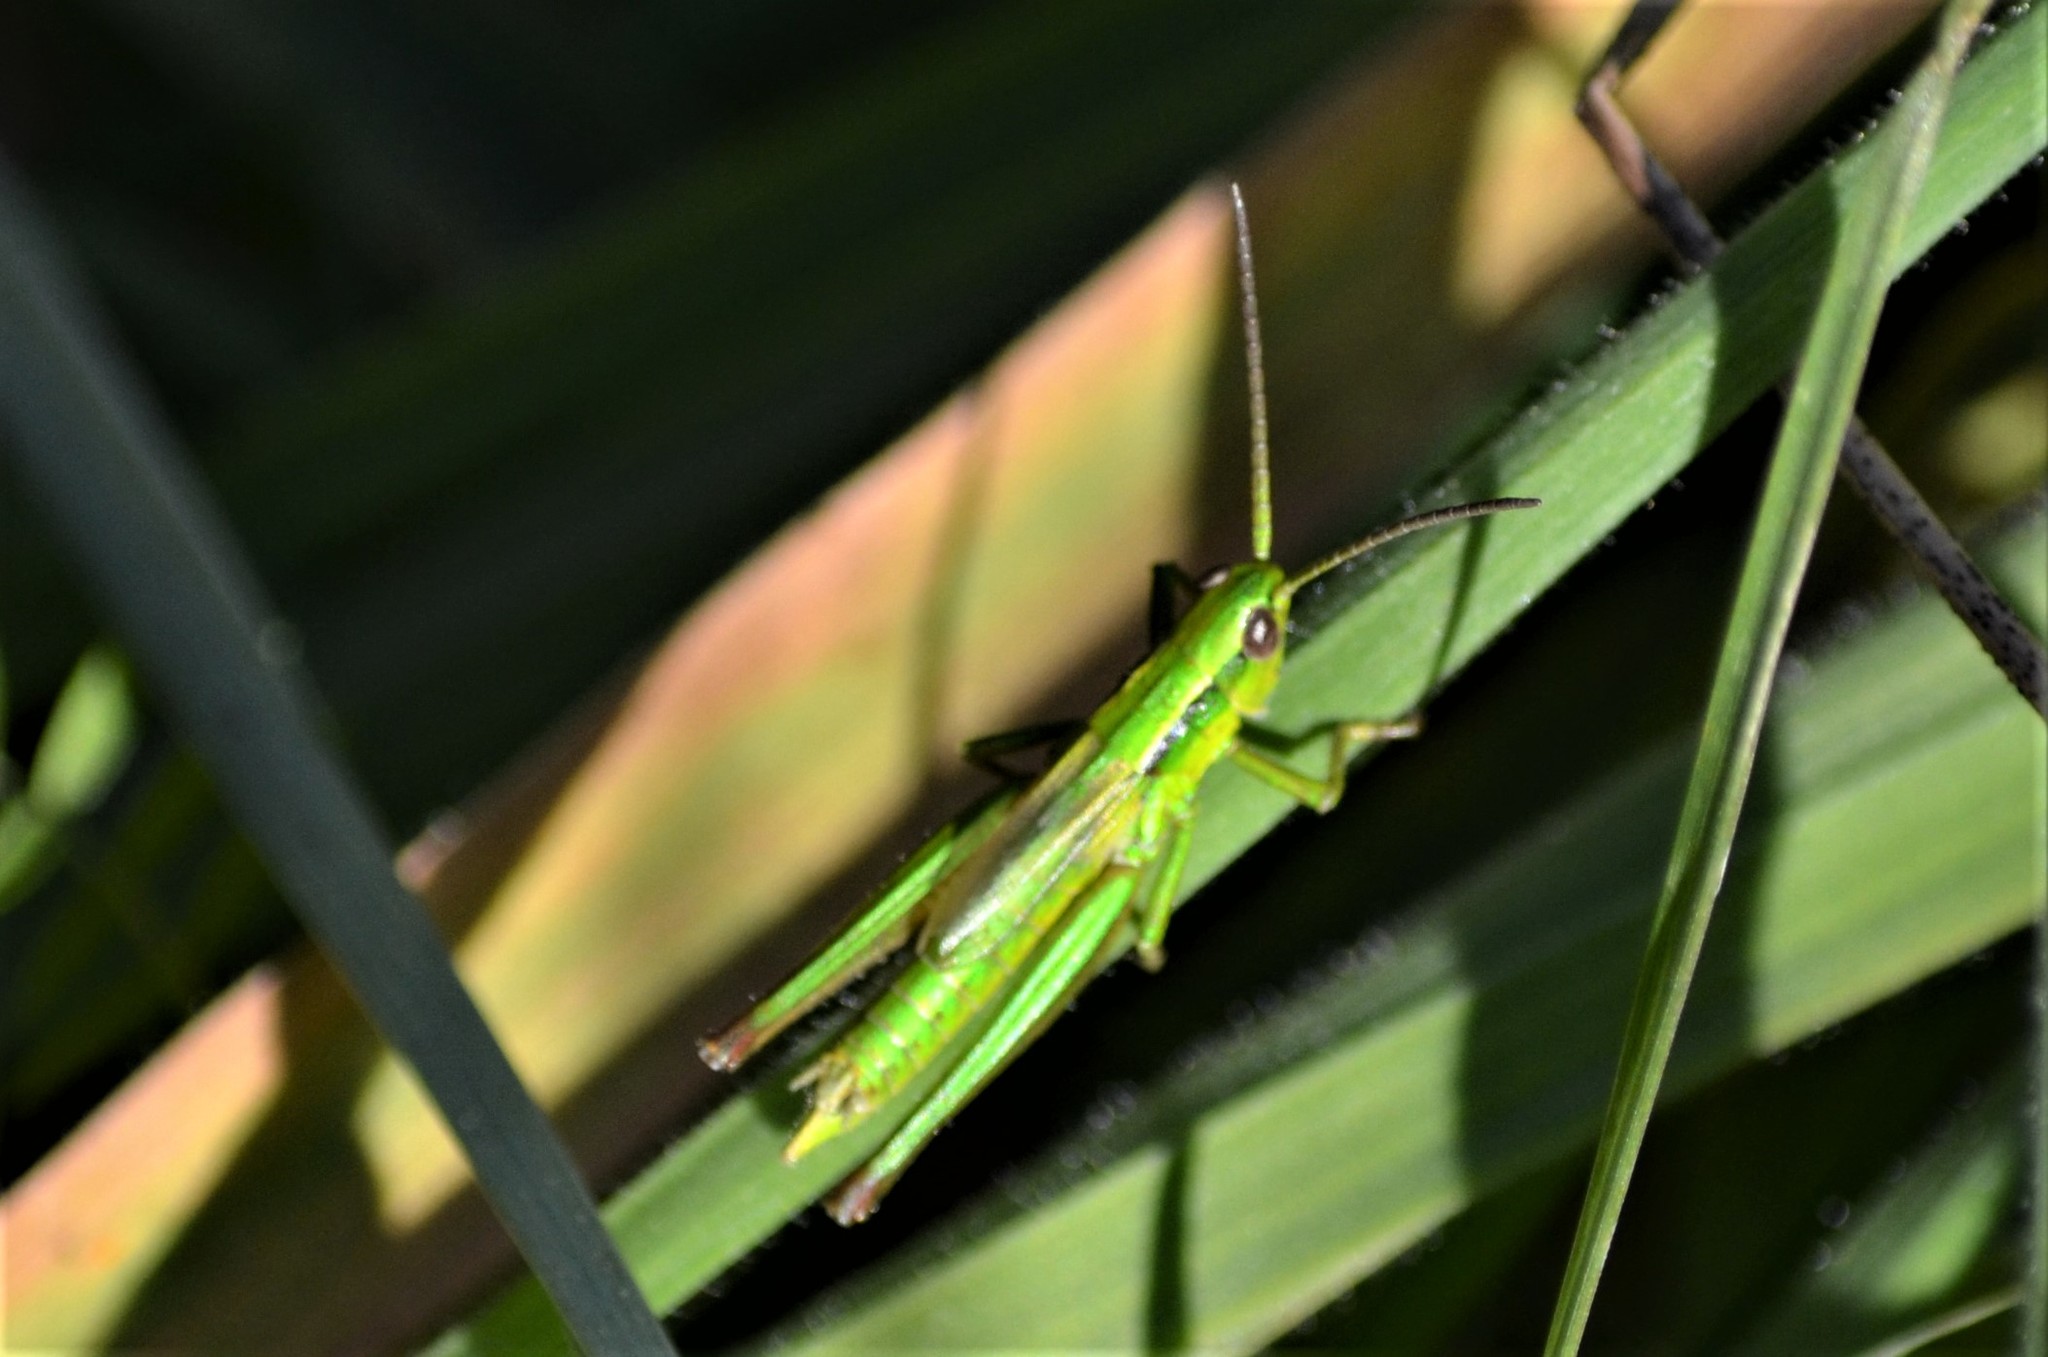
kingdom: Animalia
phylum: Arthropoda
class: Insecta
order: Orthoptera
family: Acrididae
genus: Euthystira
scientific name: Euthystira brachyptera
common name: Small gold grasshopper
